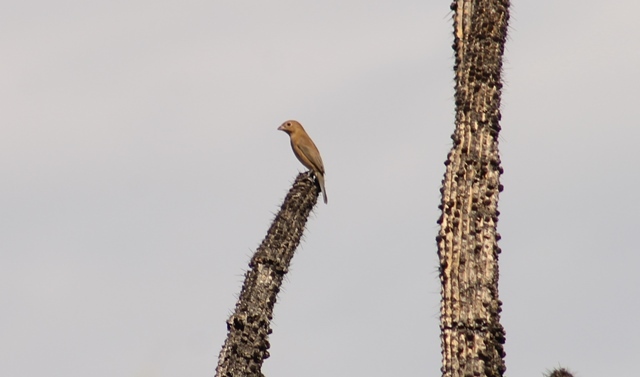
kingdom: Animalia
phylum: Chordata
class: Aves
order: Passeriformes
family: Cardinalidae
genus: Passerina
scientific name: Passerina versicolor
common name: Varied bunting
